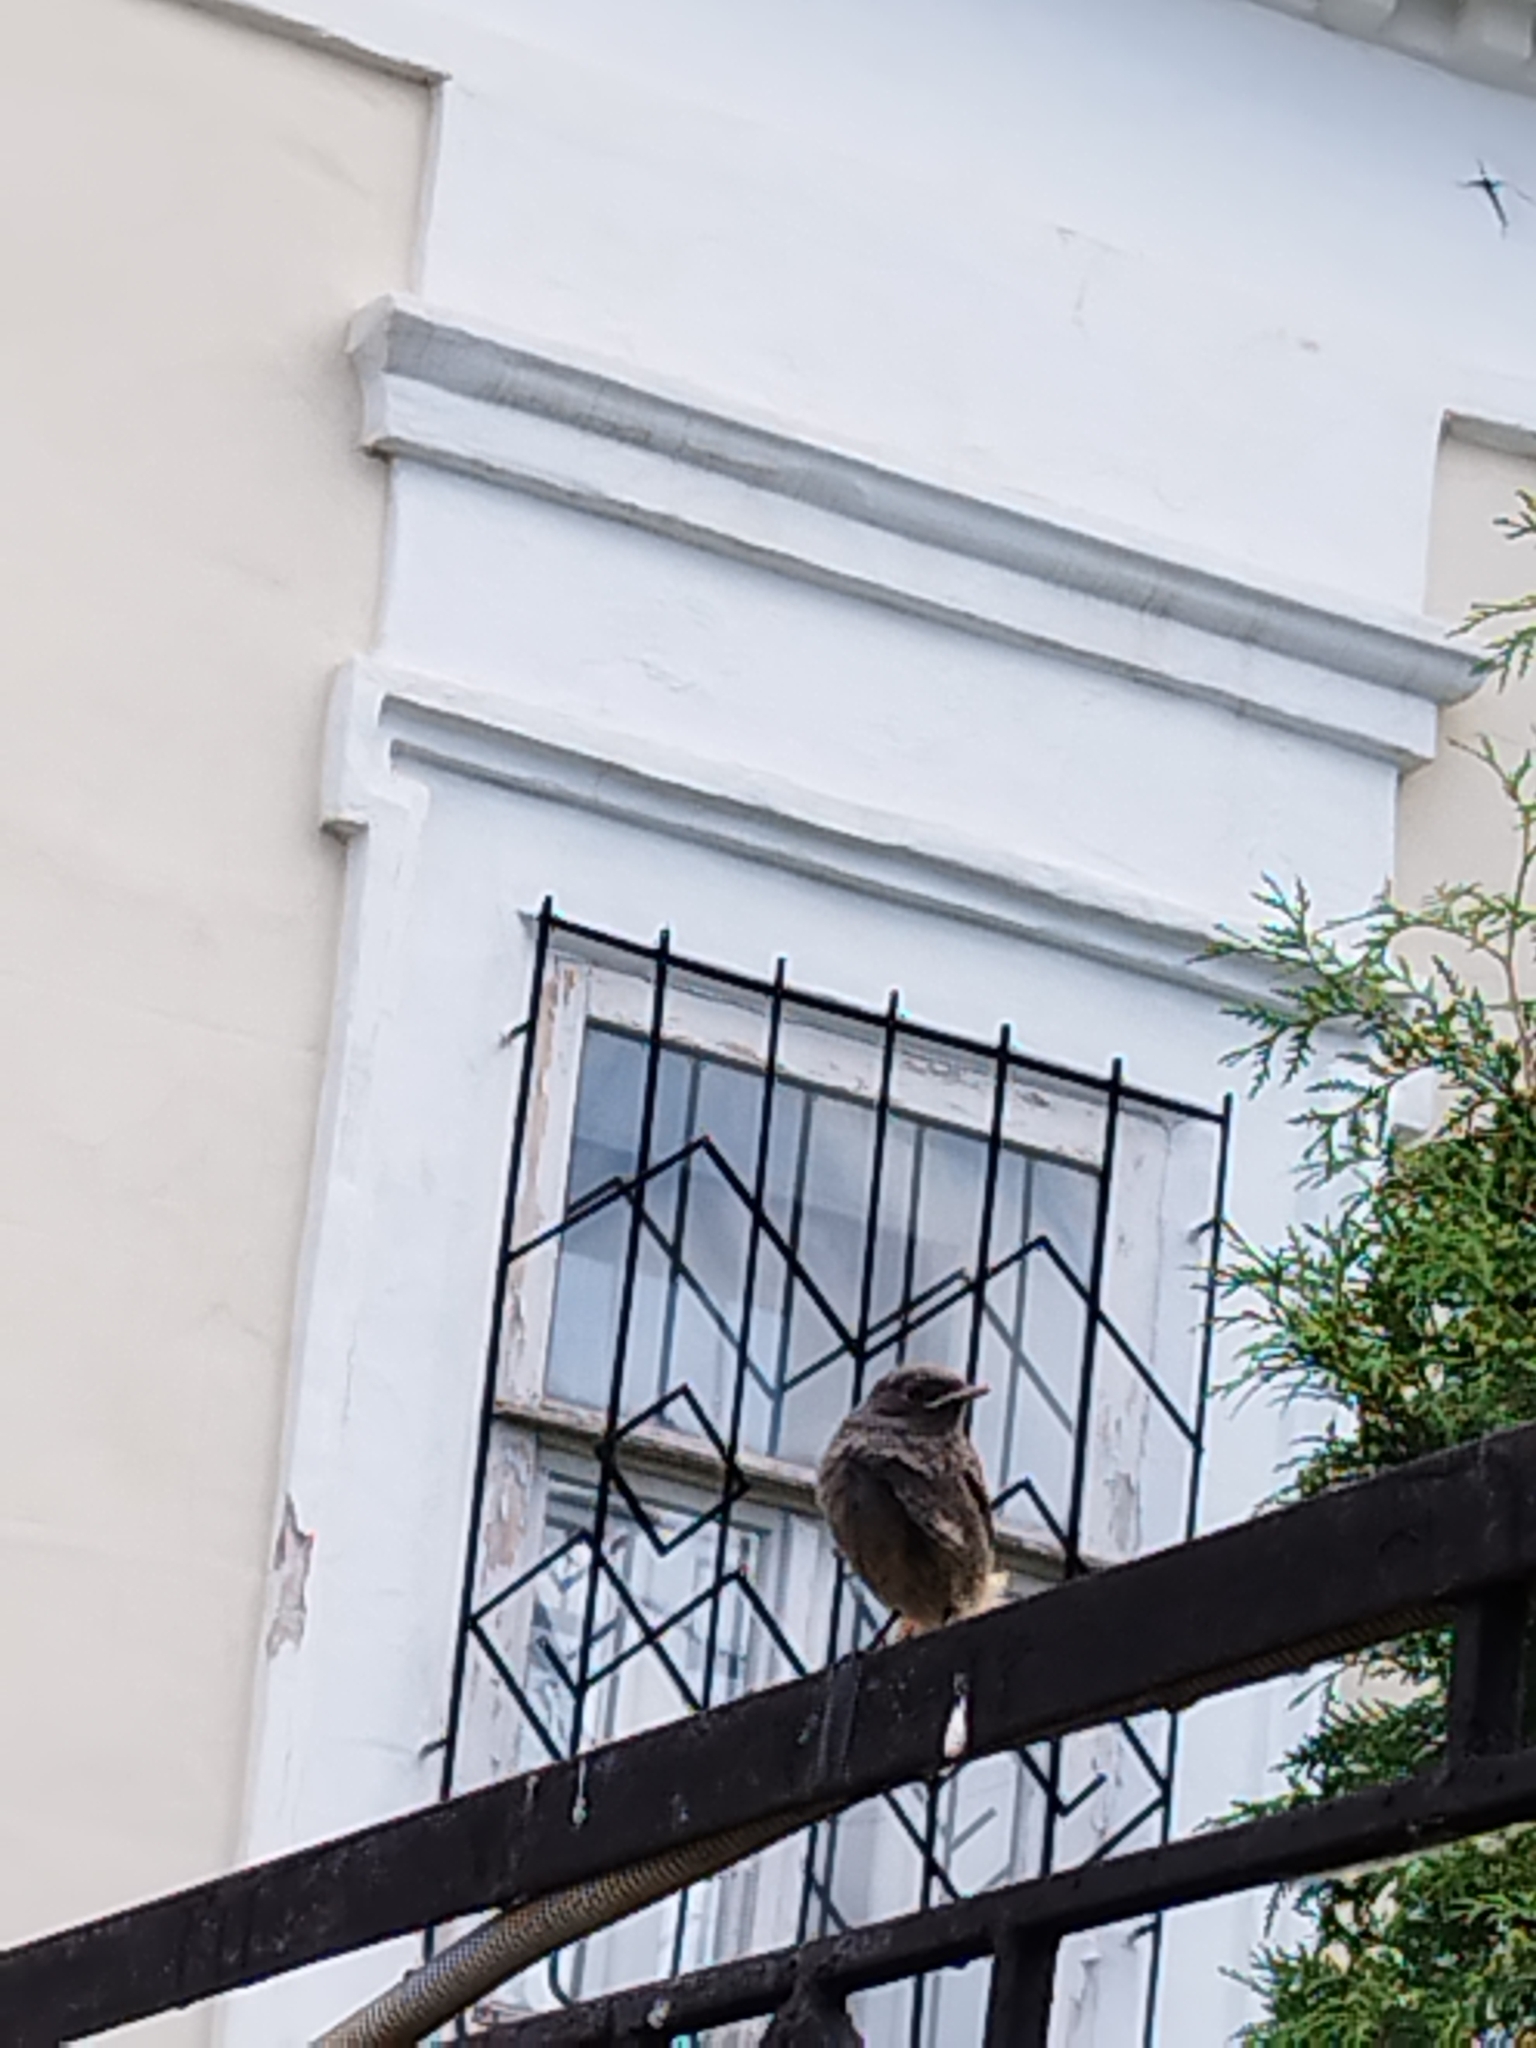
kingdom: Animalia
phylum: Chordata
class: Aves
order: Passeriformes
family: Muscicapidae
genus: Phoenicurus
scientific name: Phoenicurus ochruros
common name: Black redstart
